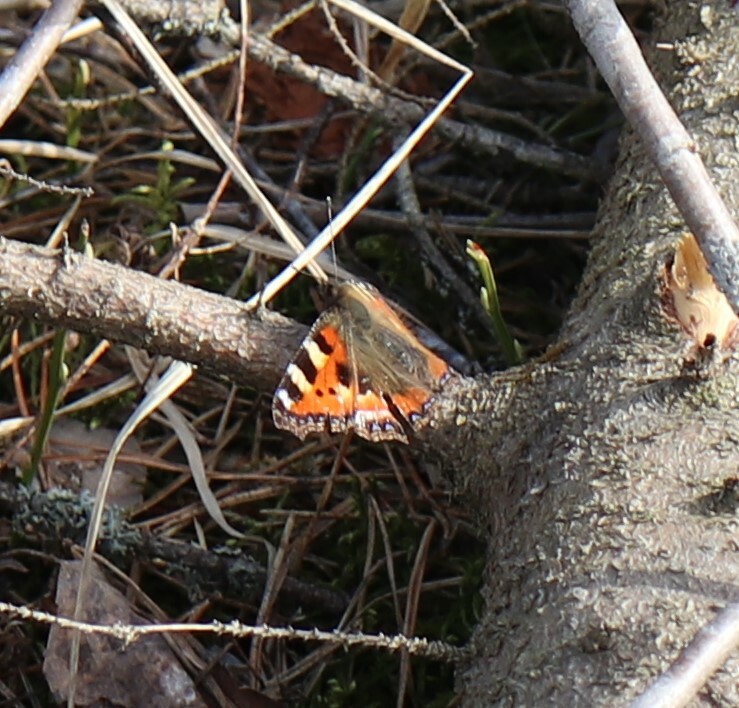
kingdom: Animalia
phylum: Arthropoda
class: Insecta
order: Lepidoptera
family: Nymphalidae
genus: Aglais
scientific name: Aglais urticae
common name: Small tortoiseshell
